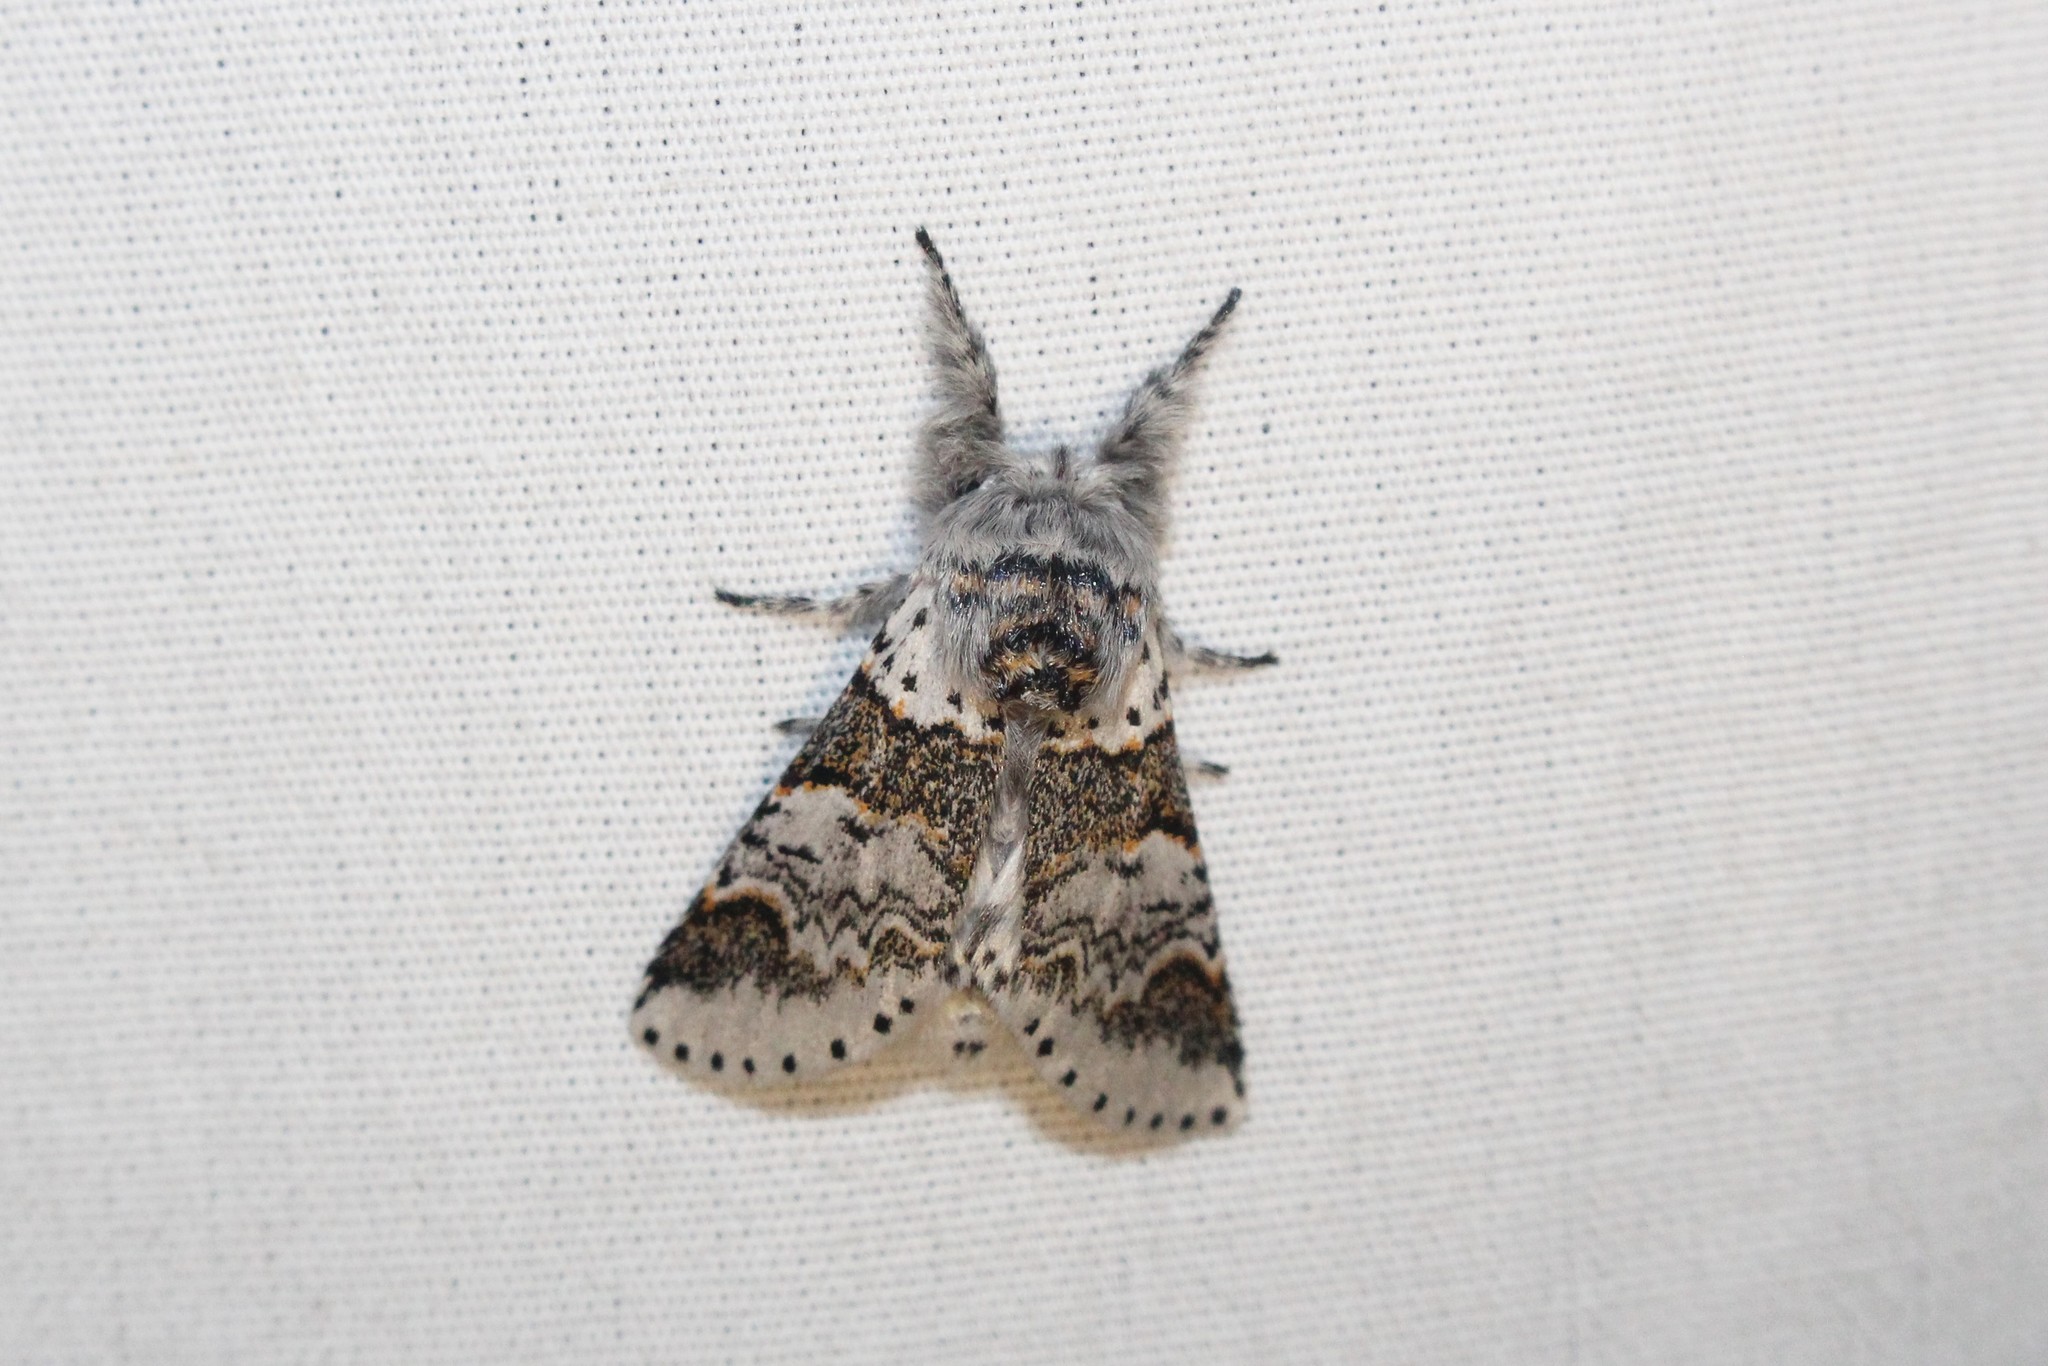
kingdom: Animalia
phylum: Arthropoda
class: Insecta
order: Lepidoptera
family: Notodontidae
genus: Furcula
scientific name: Furcula occidentalis
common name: Western furcula moth
